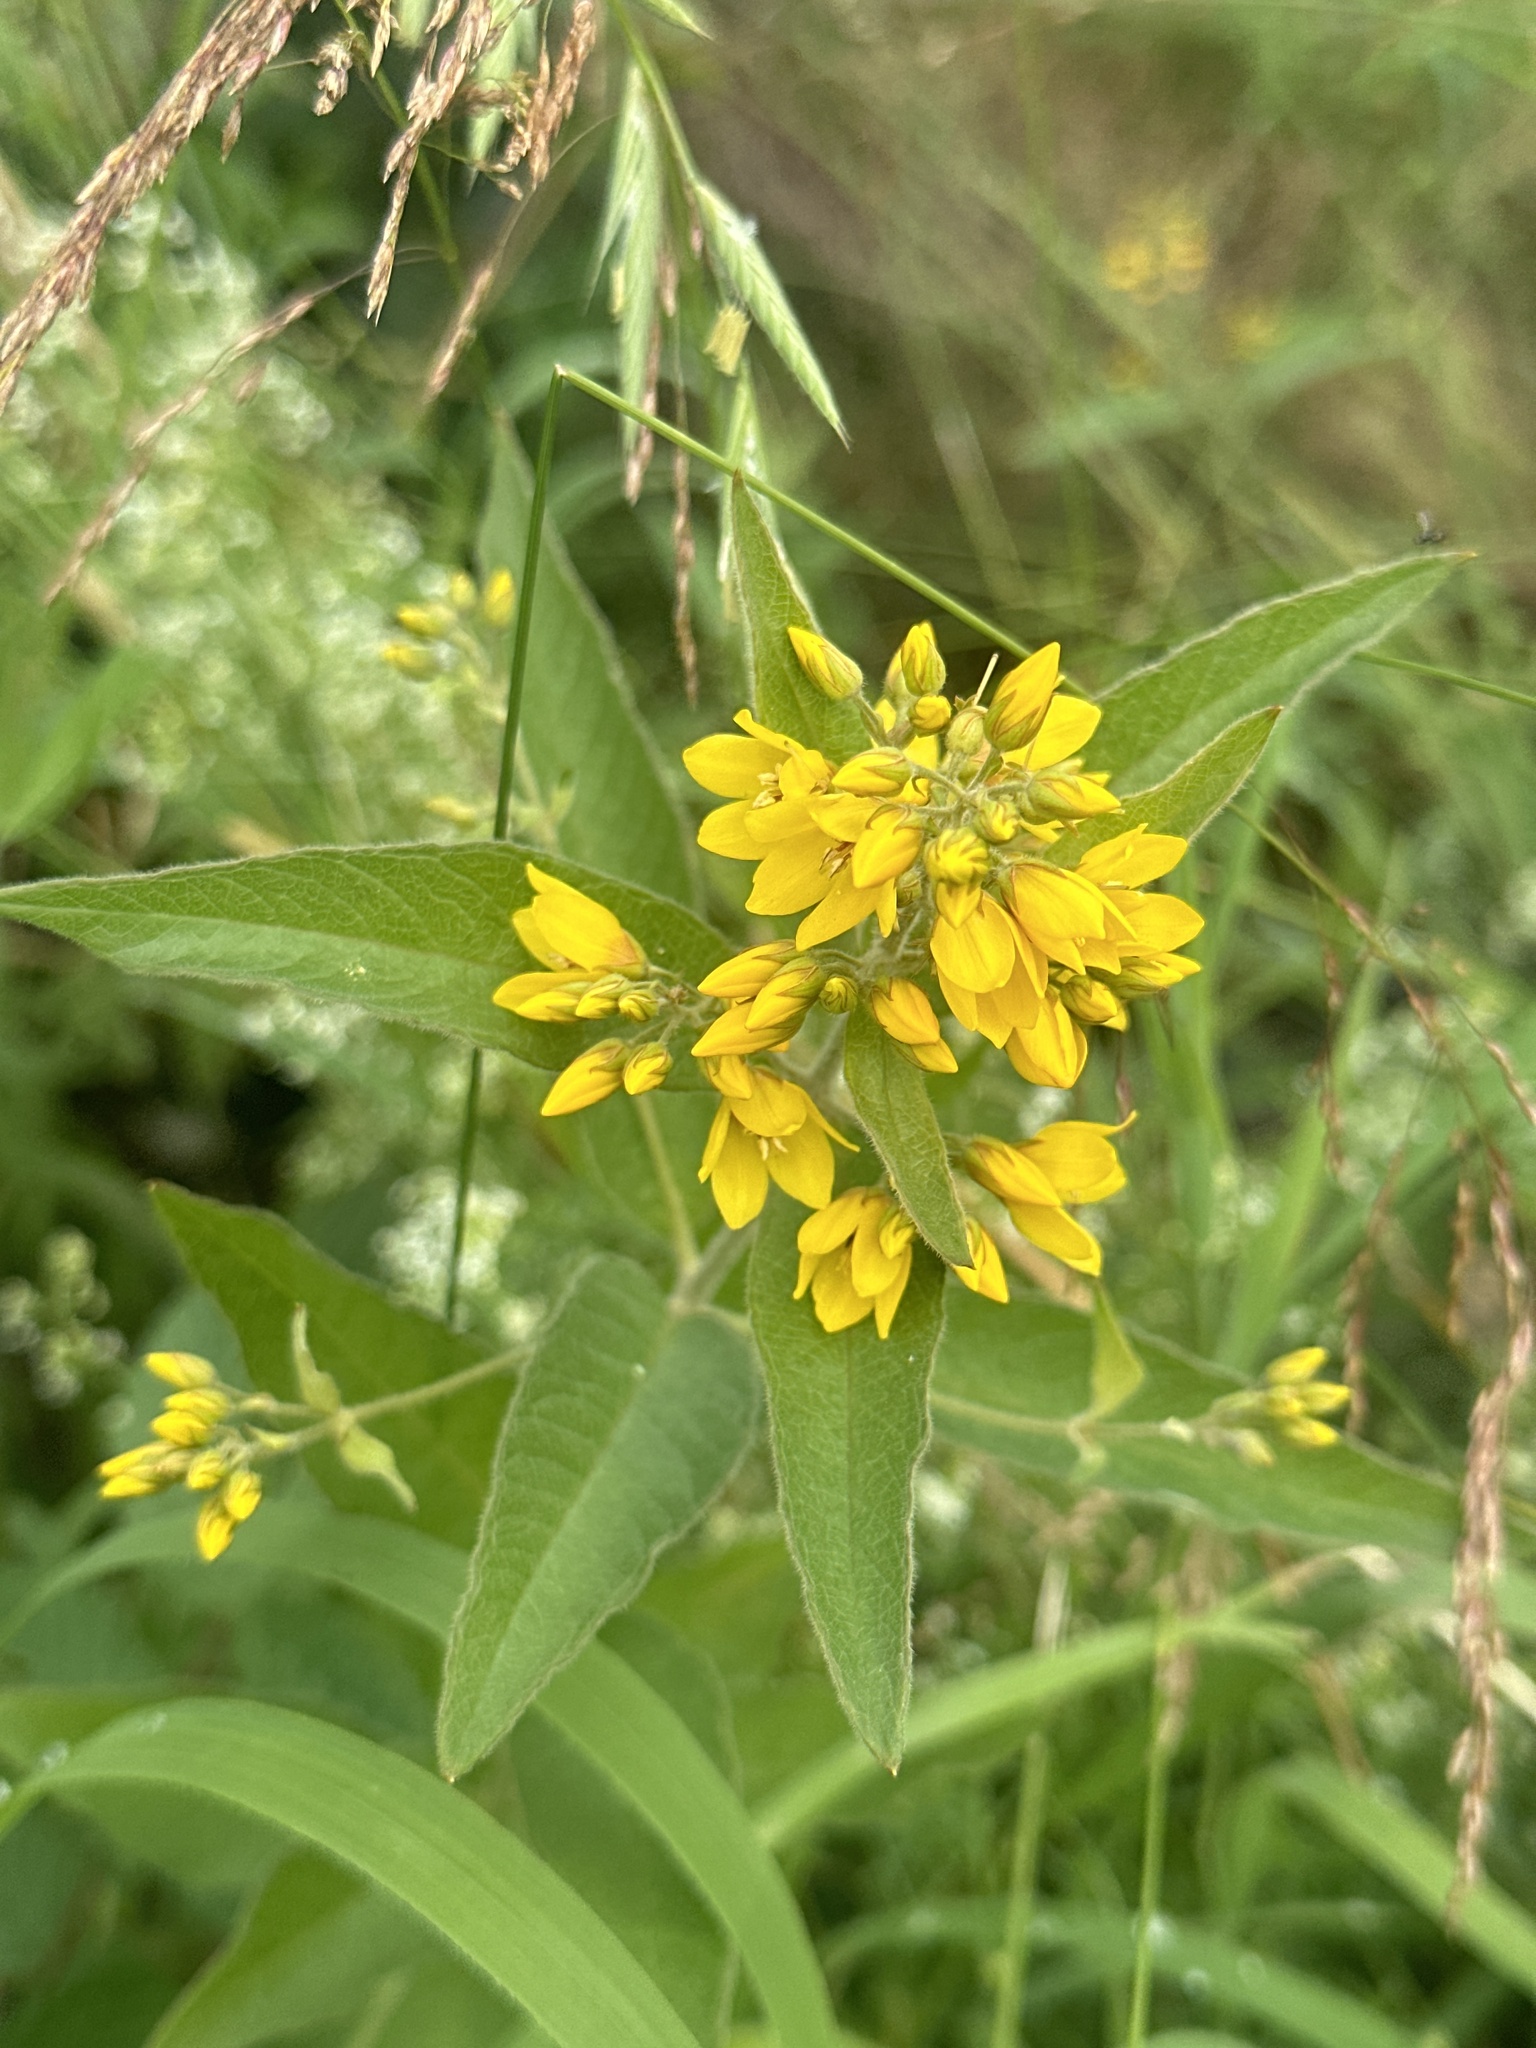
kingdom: Plantae
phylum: Tracheophyta
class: Magnoliopsida
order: Ericales
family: Primulaceae
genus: Lysimachia
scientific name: Lysimachia vulgaris
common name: Yellow loosestrife
